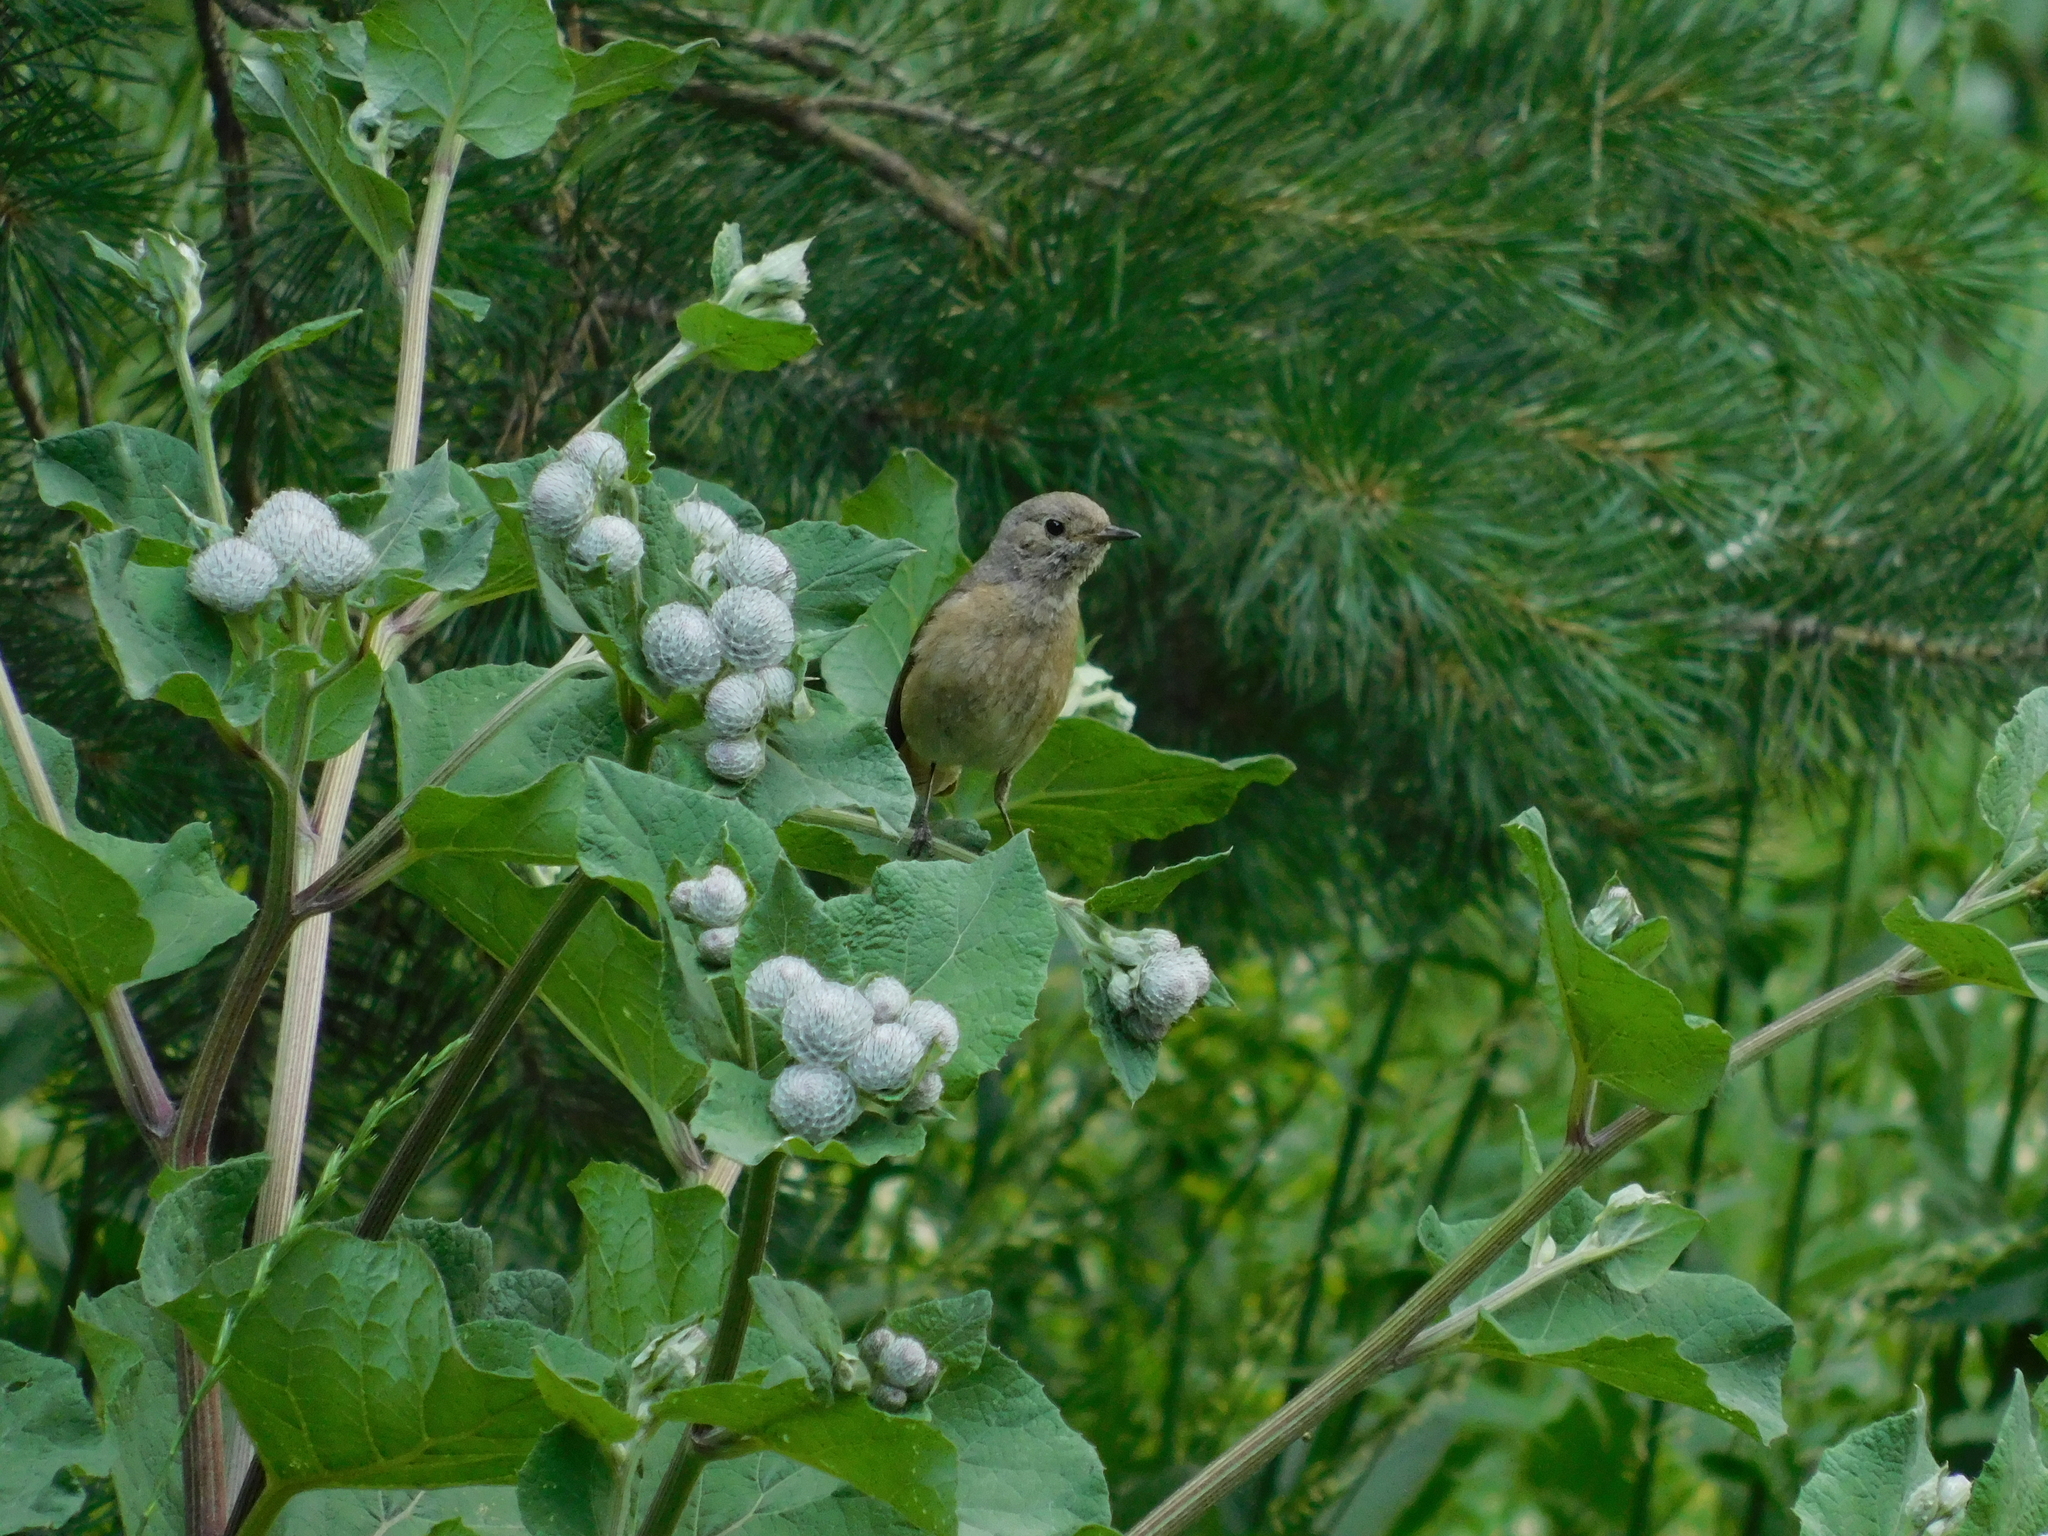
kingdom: Animalia
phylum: Chordata
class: Aves
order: Passeriformes
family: Muscicapidae
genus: Phoenicurus
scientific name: Phoenicurus phoenicurus
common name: Common redstart
